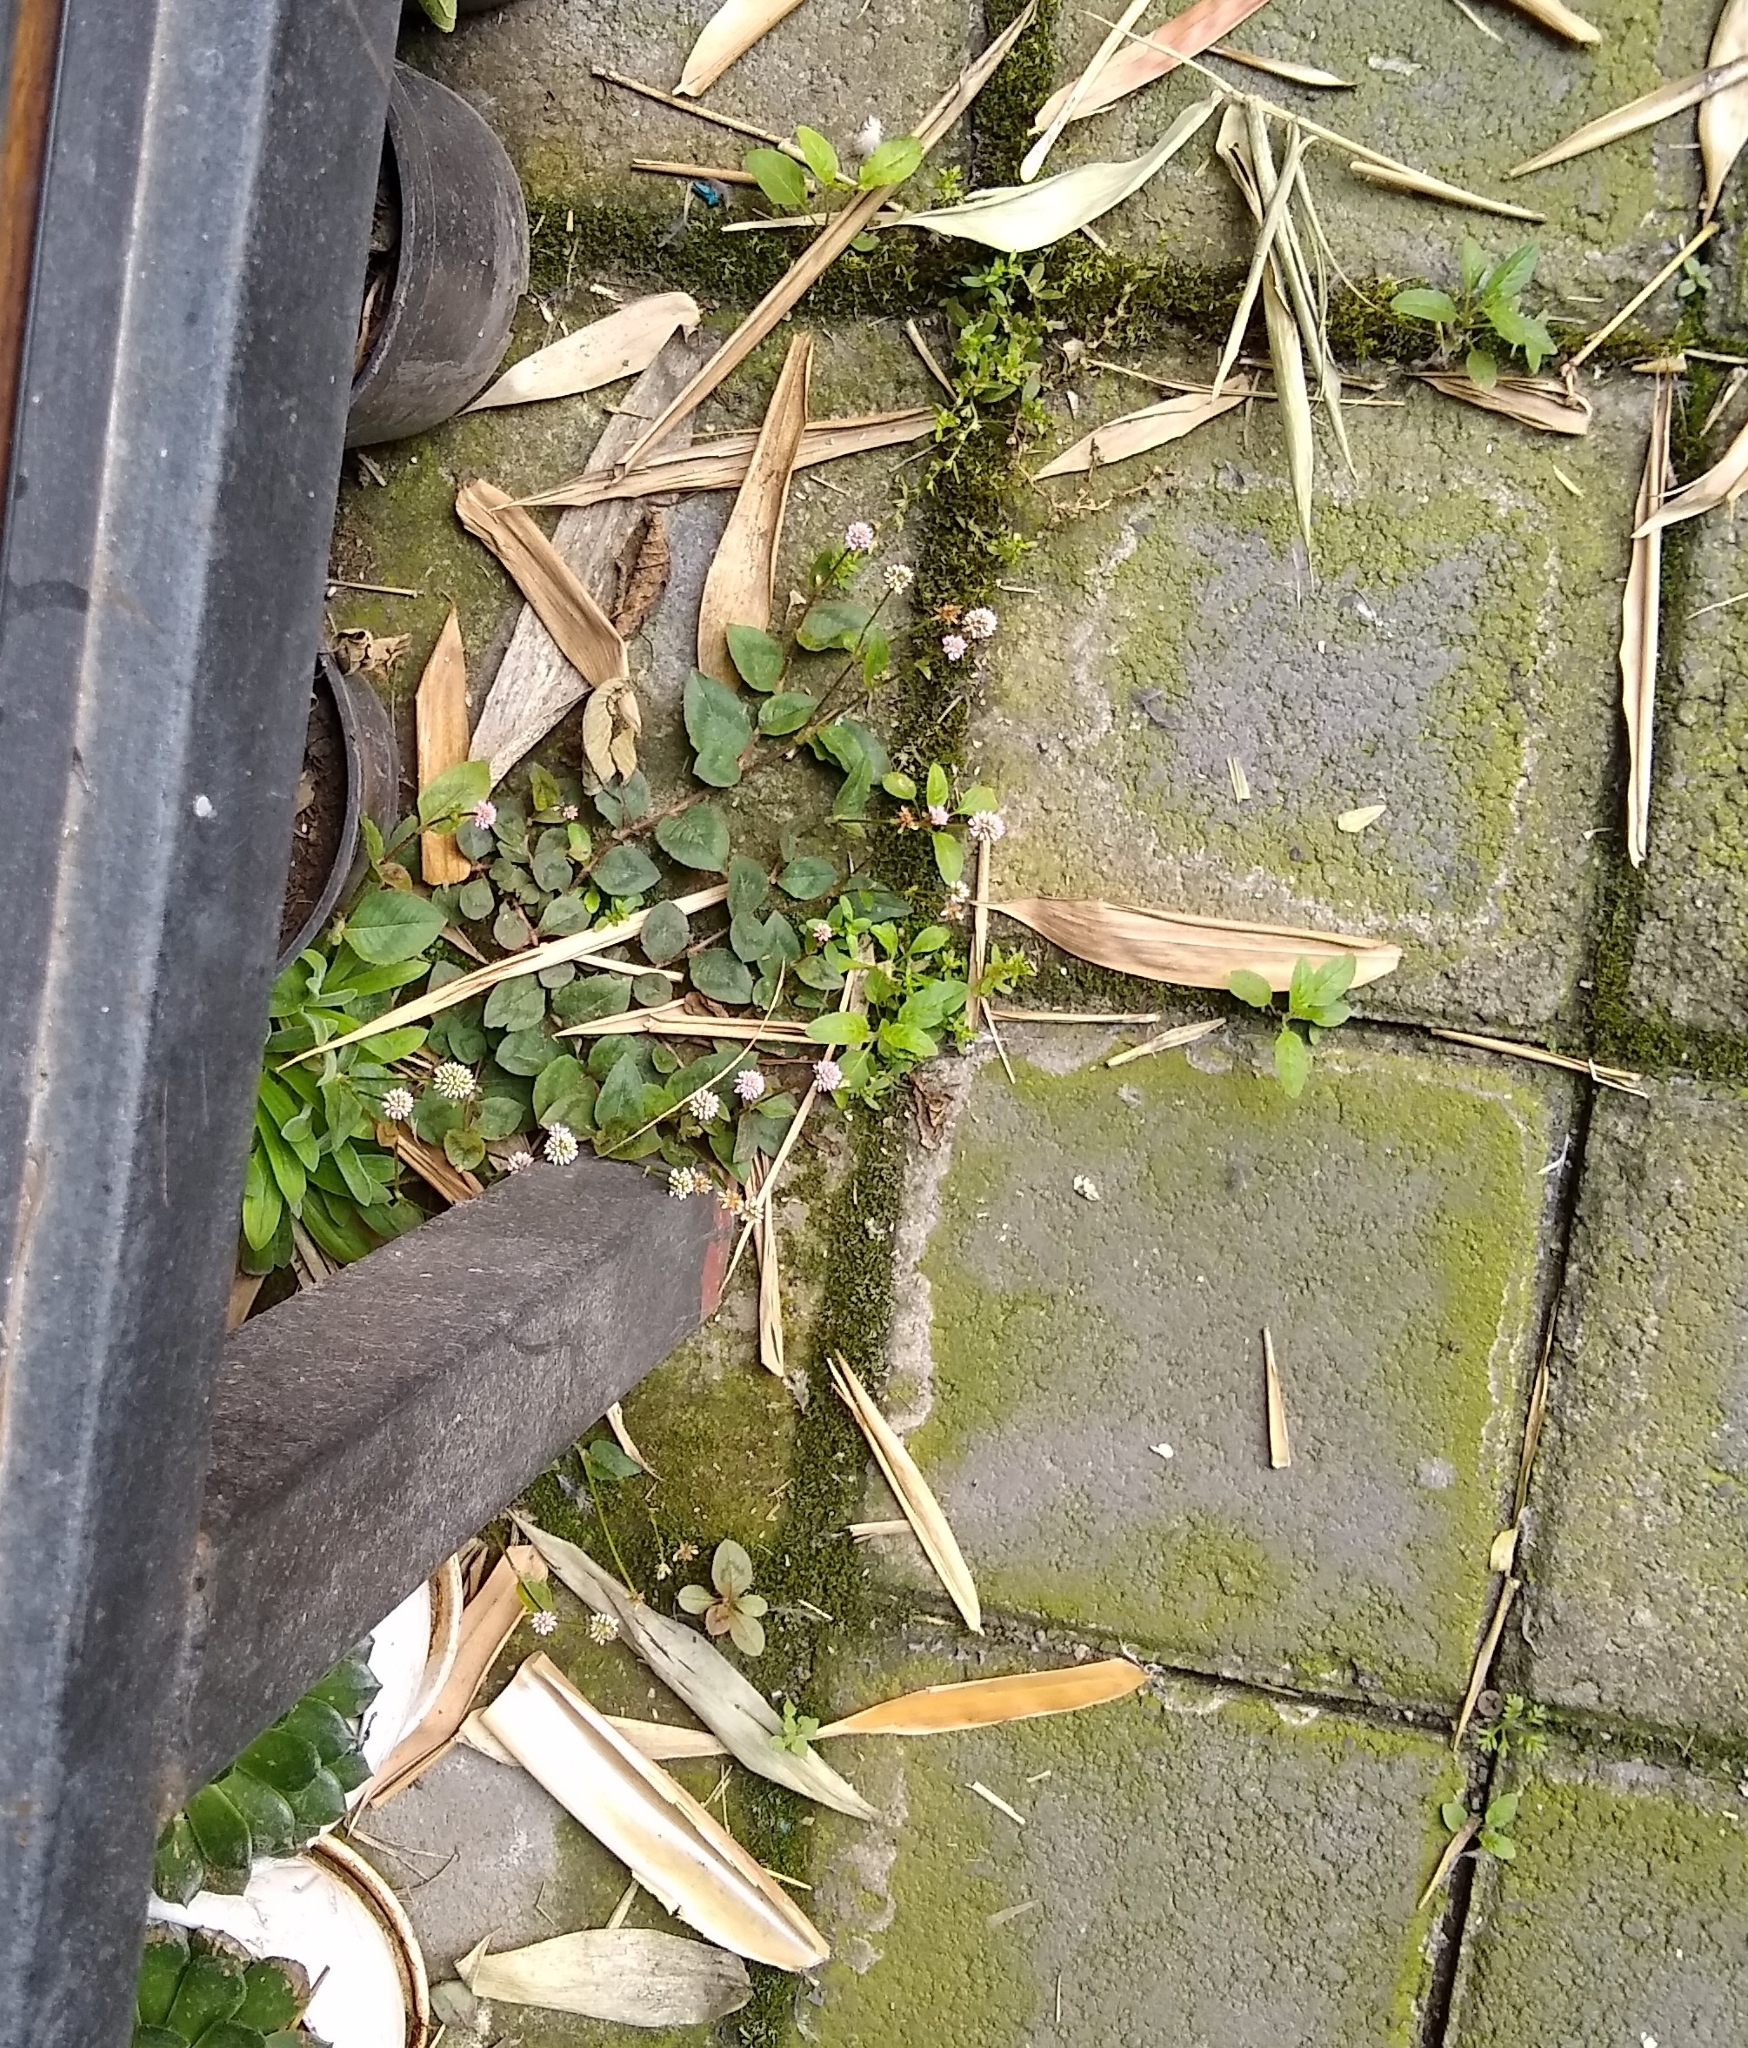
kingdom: Plantae
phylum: Tracheophyta
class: Magnoliopsida
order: Caryophyllales
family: Polygonaceae
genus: Persicaria
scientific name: Persicaria capitata
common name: Pinkhead smartweed
